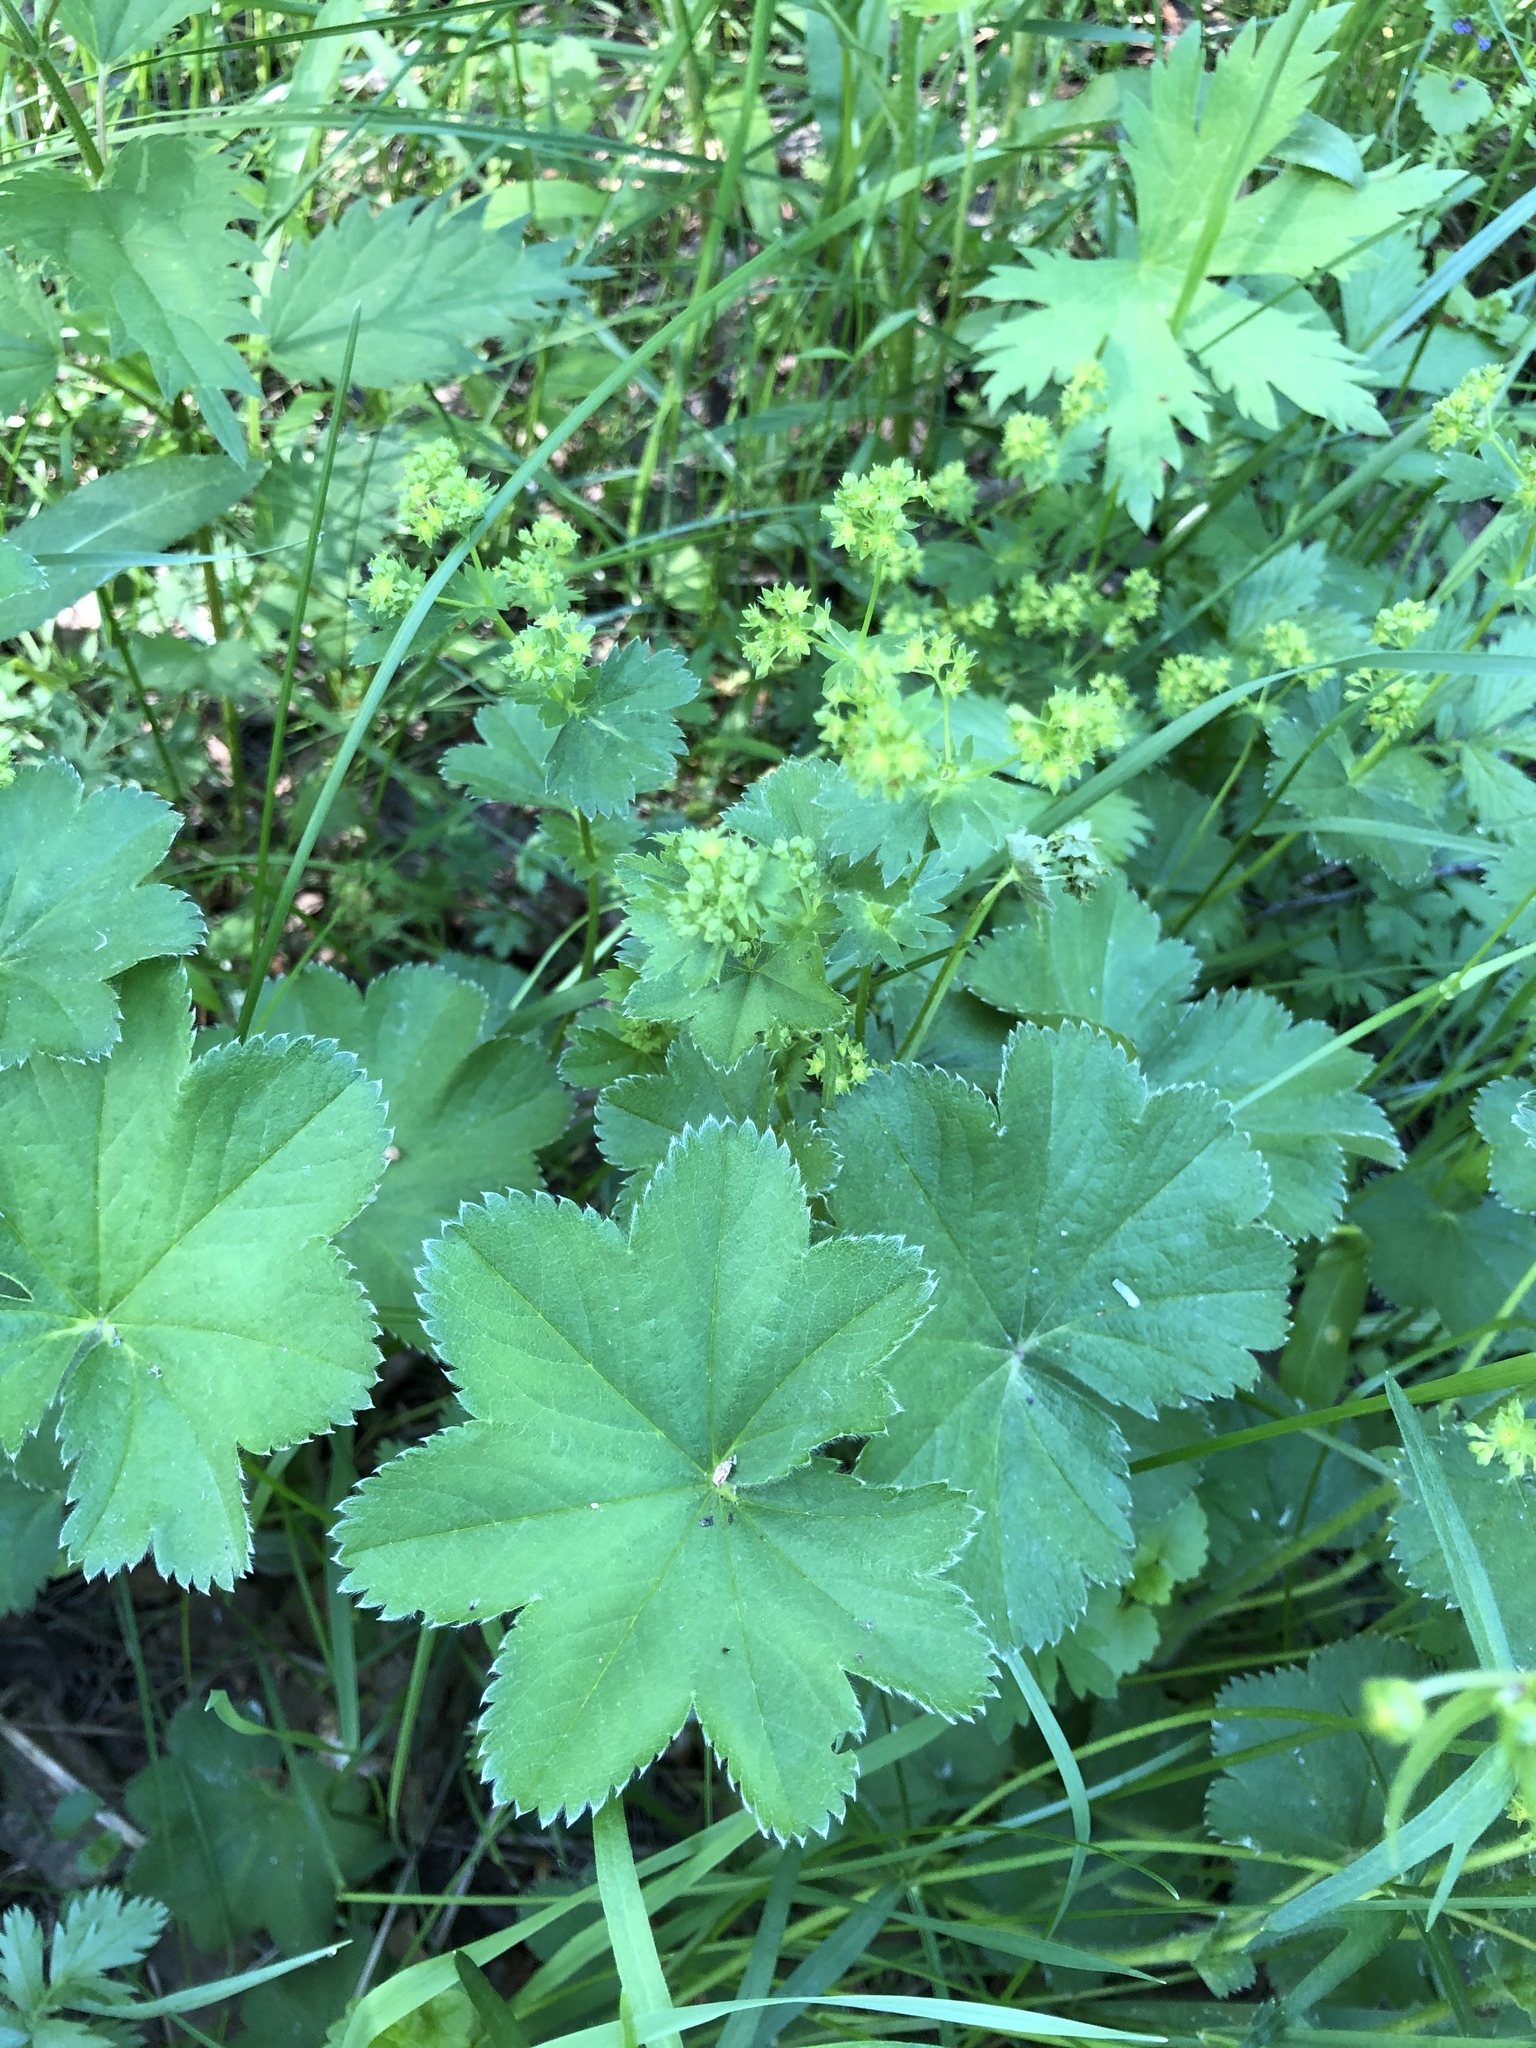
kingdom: Plantae
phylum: Tracheophyta
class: Magnoliopsida
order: Rosales
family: Rosaceae
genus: Alchemilla
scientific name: Alchemilla
